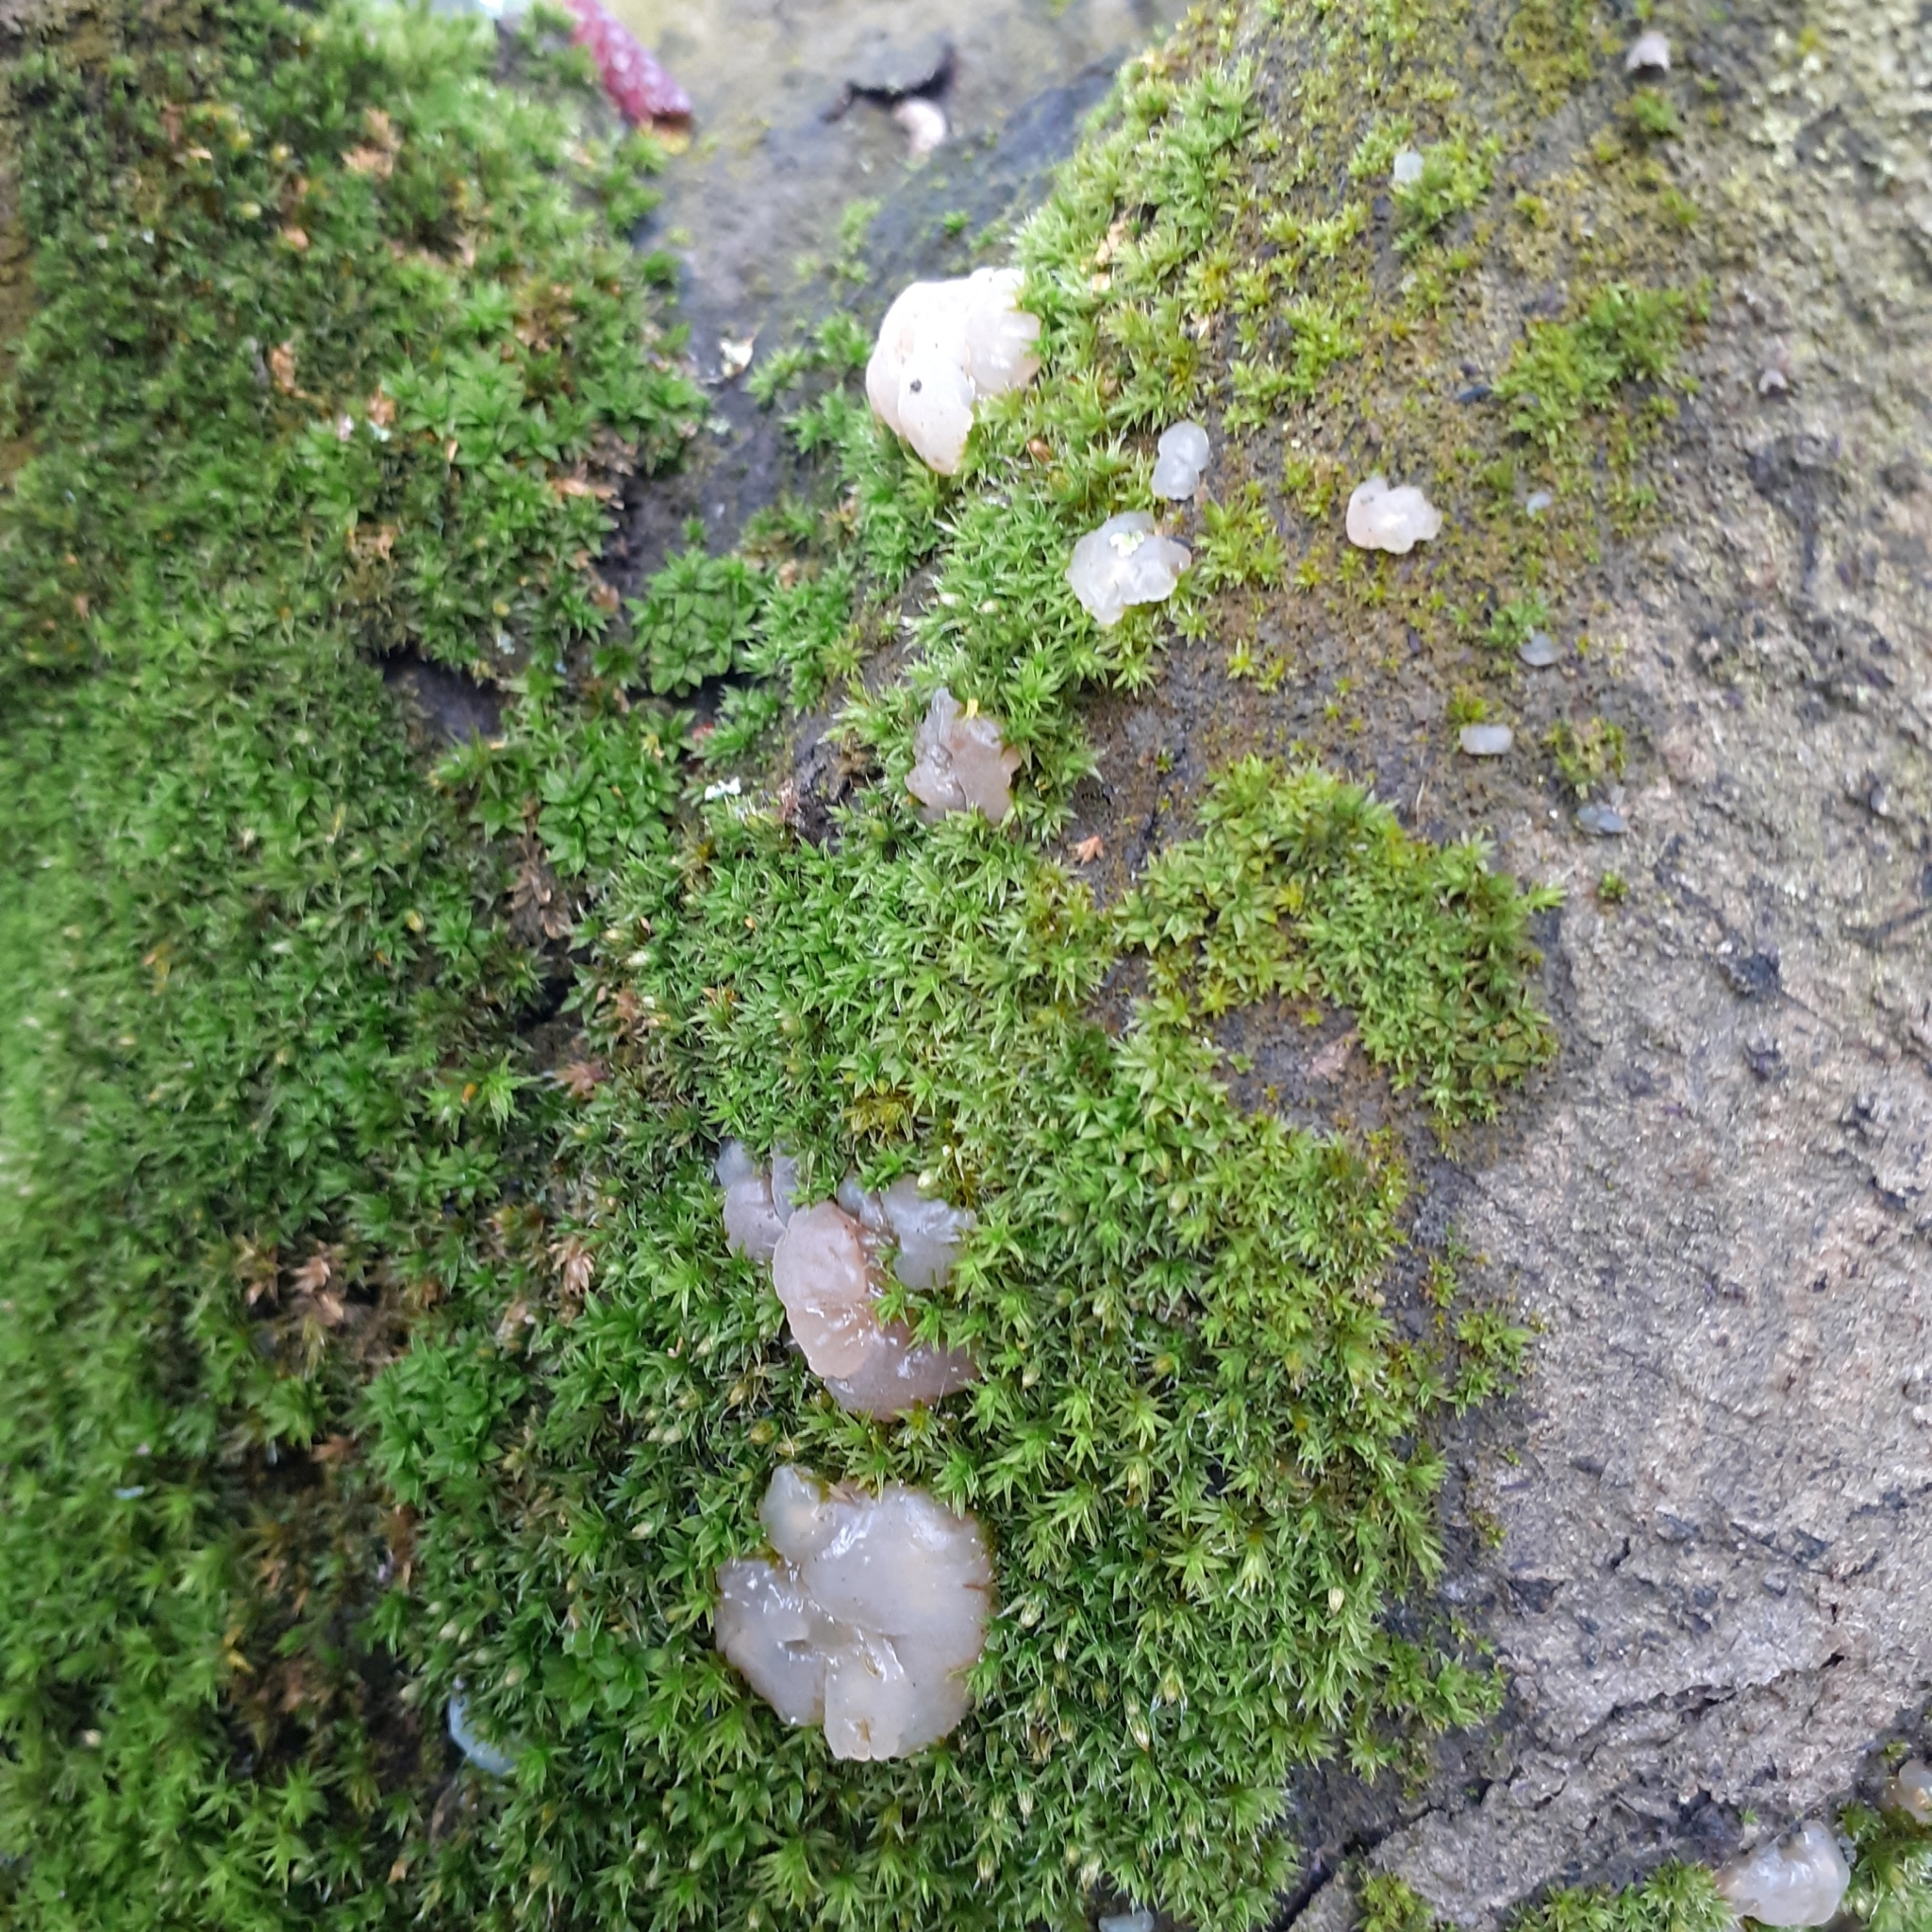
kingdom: Fungi
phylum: Basidiomycota
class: Agaricomycetes
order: Auriculariales
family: Hyaloriaceae
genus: Myxarium
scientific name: Myxarium nucleatum
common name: Crystal brain fungus
